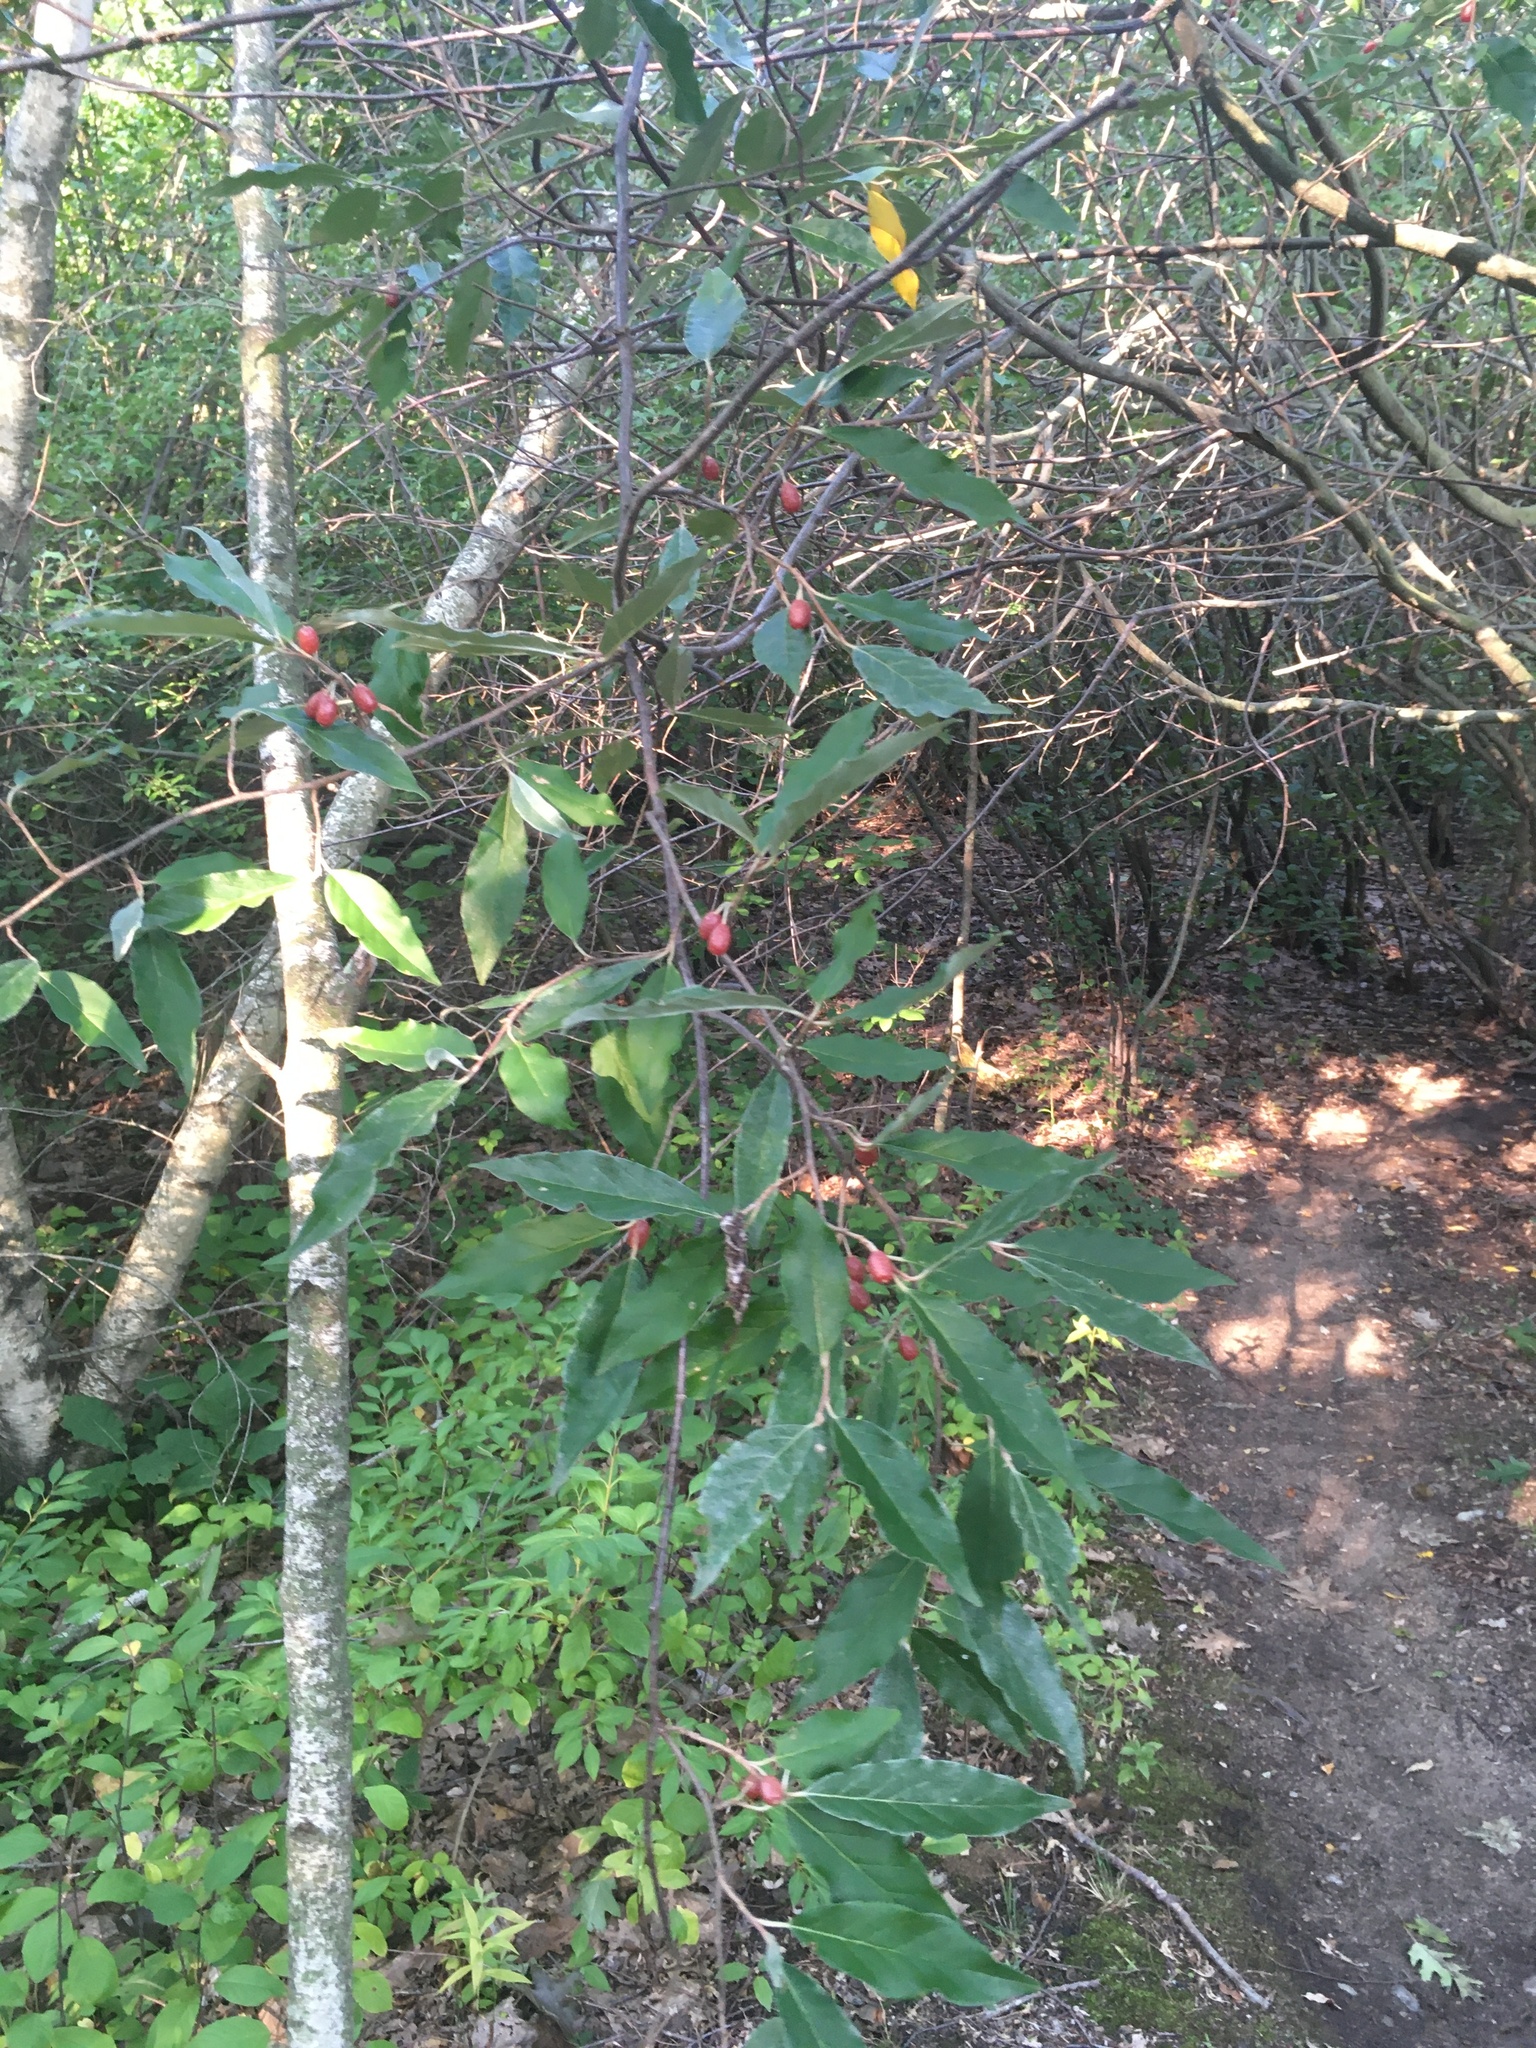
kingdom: Plantae
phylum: Tracheophyta
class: Magnoliopsida
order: Rosales
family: Elaeagnaceae
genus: Elaeagnus
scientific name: Elaeagnus umbellata
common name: Autumn olive
